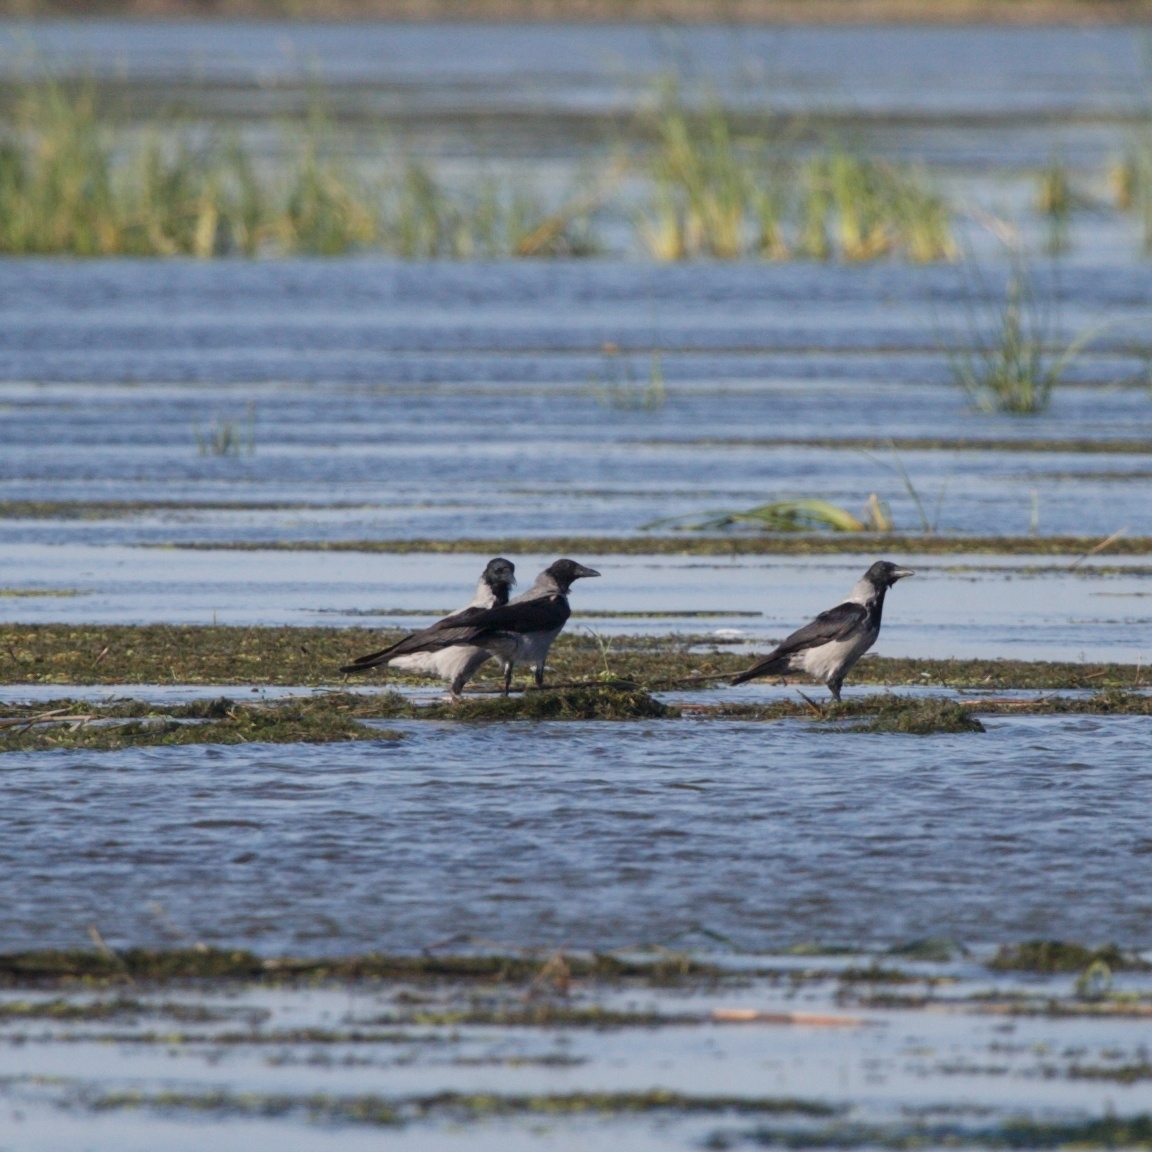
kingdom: Animalia
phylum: Chordata
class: Aves
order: Passeriformes
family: Corvidae
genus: Corvus
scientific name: Corvus cornix
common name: Hooded crow
